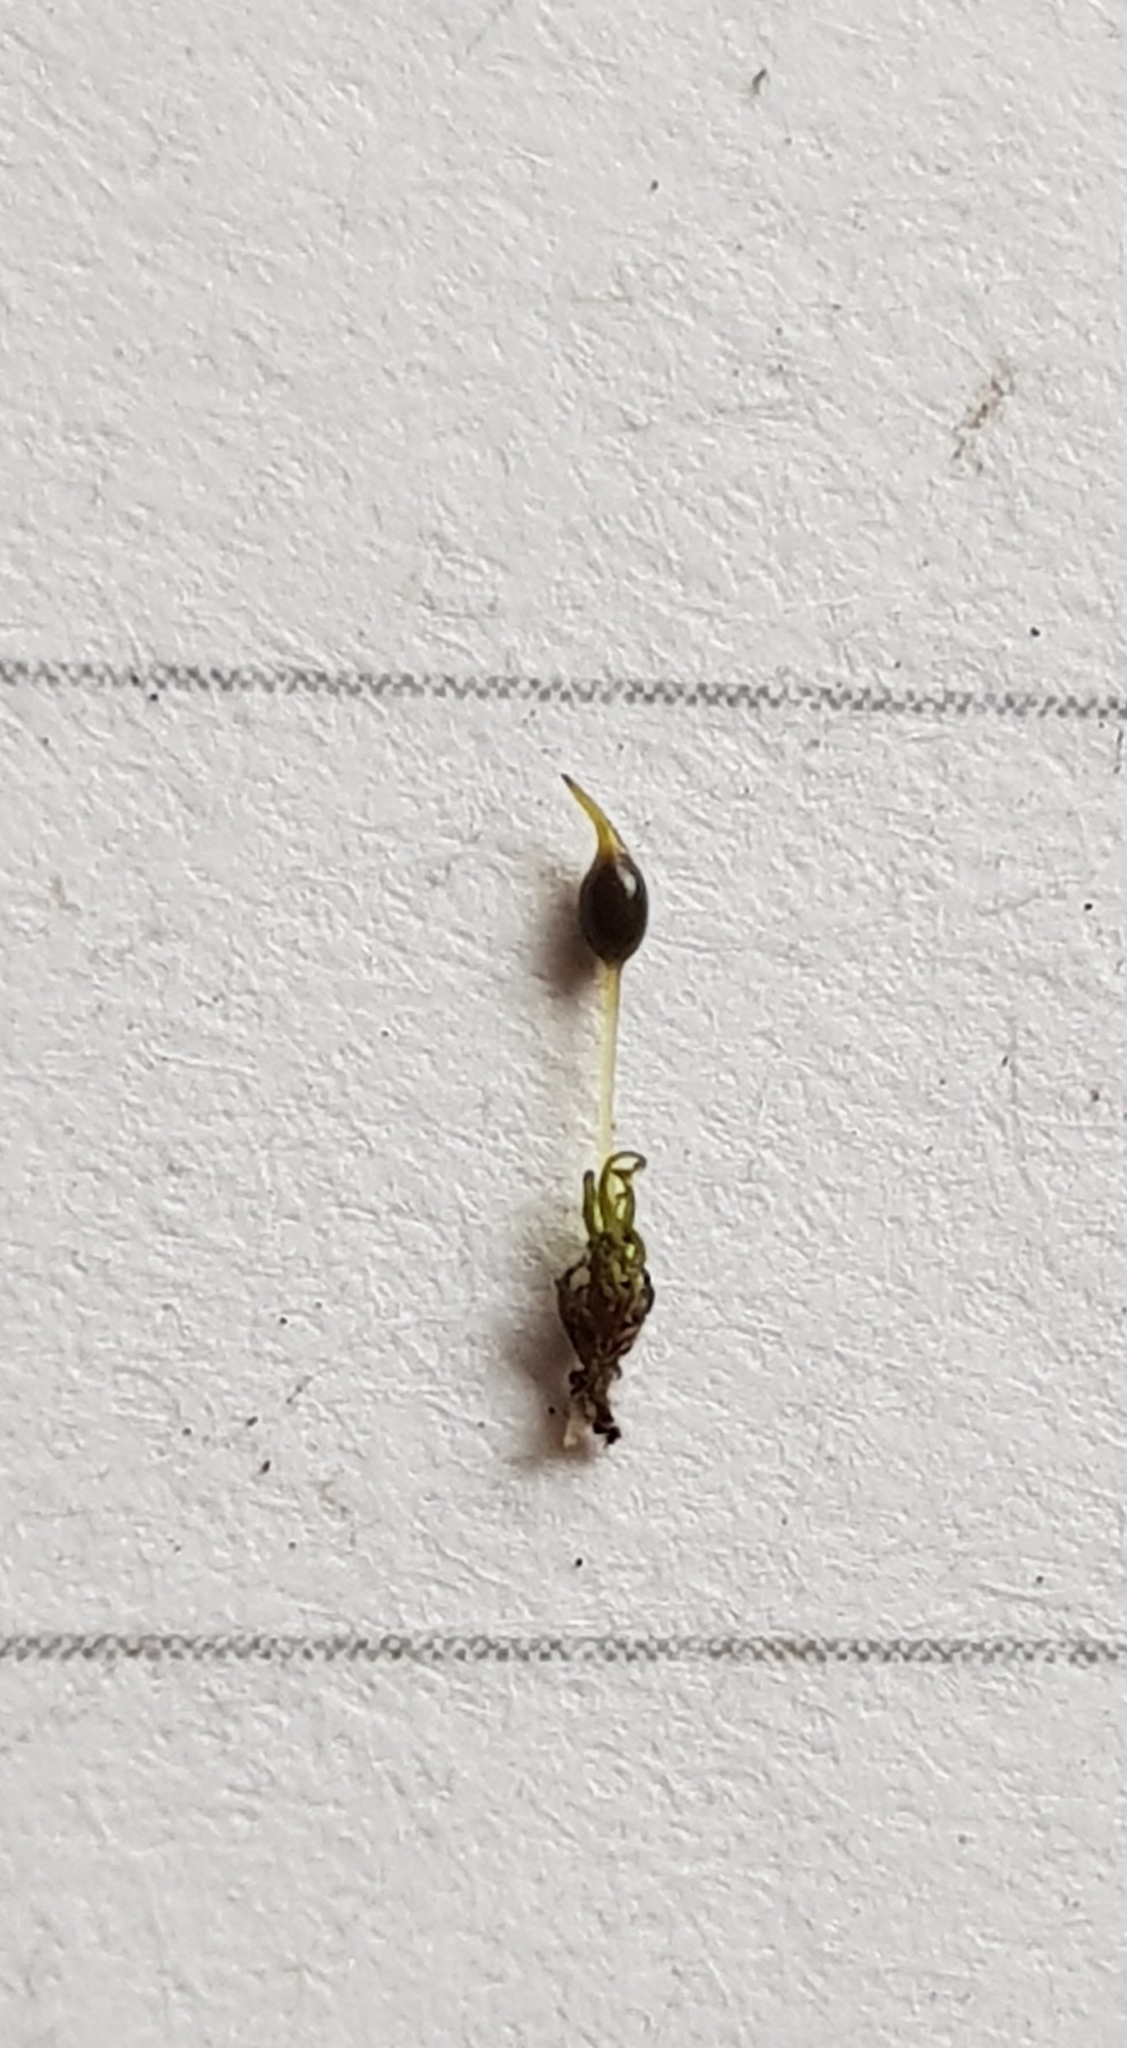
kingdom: Plantae
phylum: Bryophyta
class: Bryopsida
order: Pottiales
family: Pottiaceae
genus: Weissia
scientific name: Weissia controversa
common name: Green-tufted stubble moss
